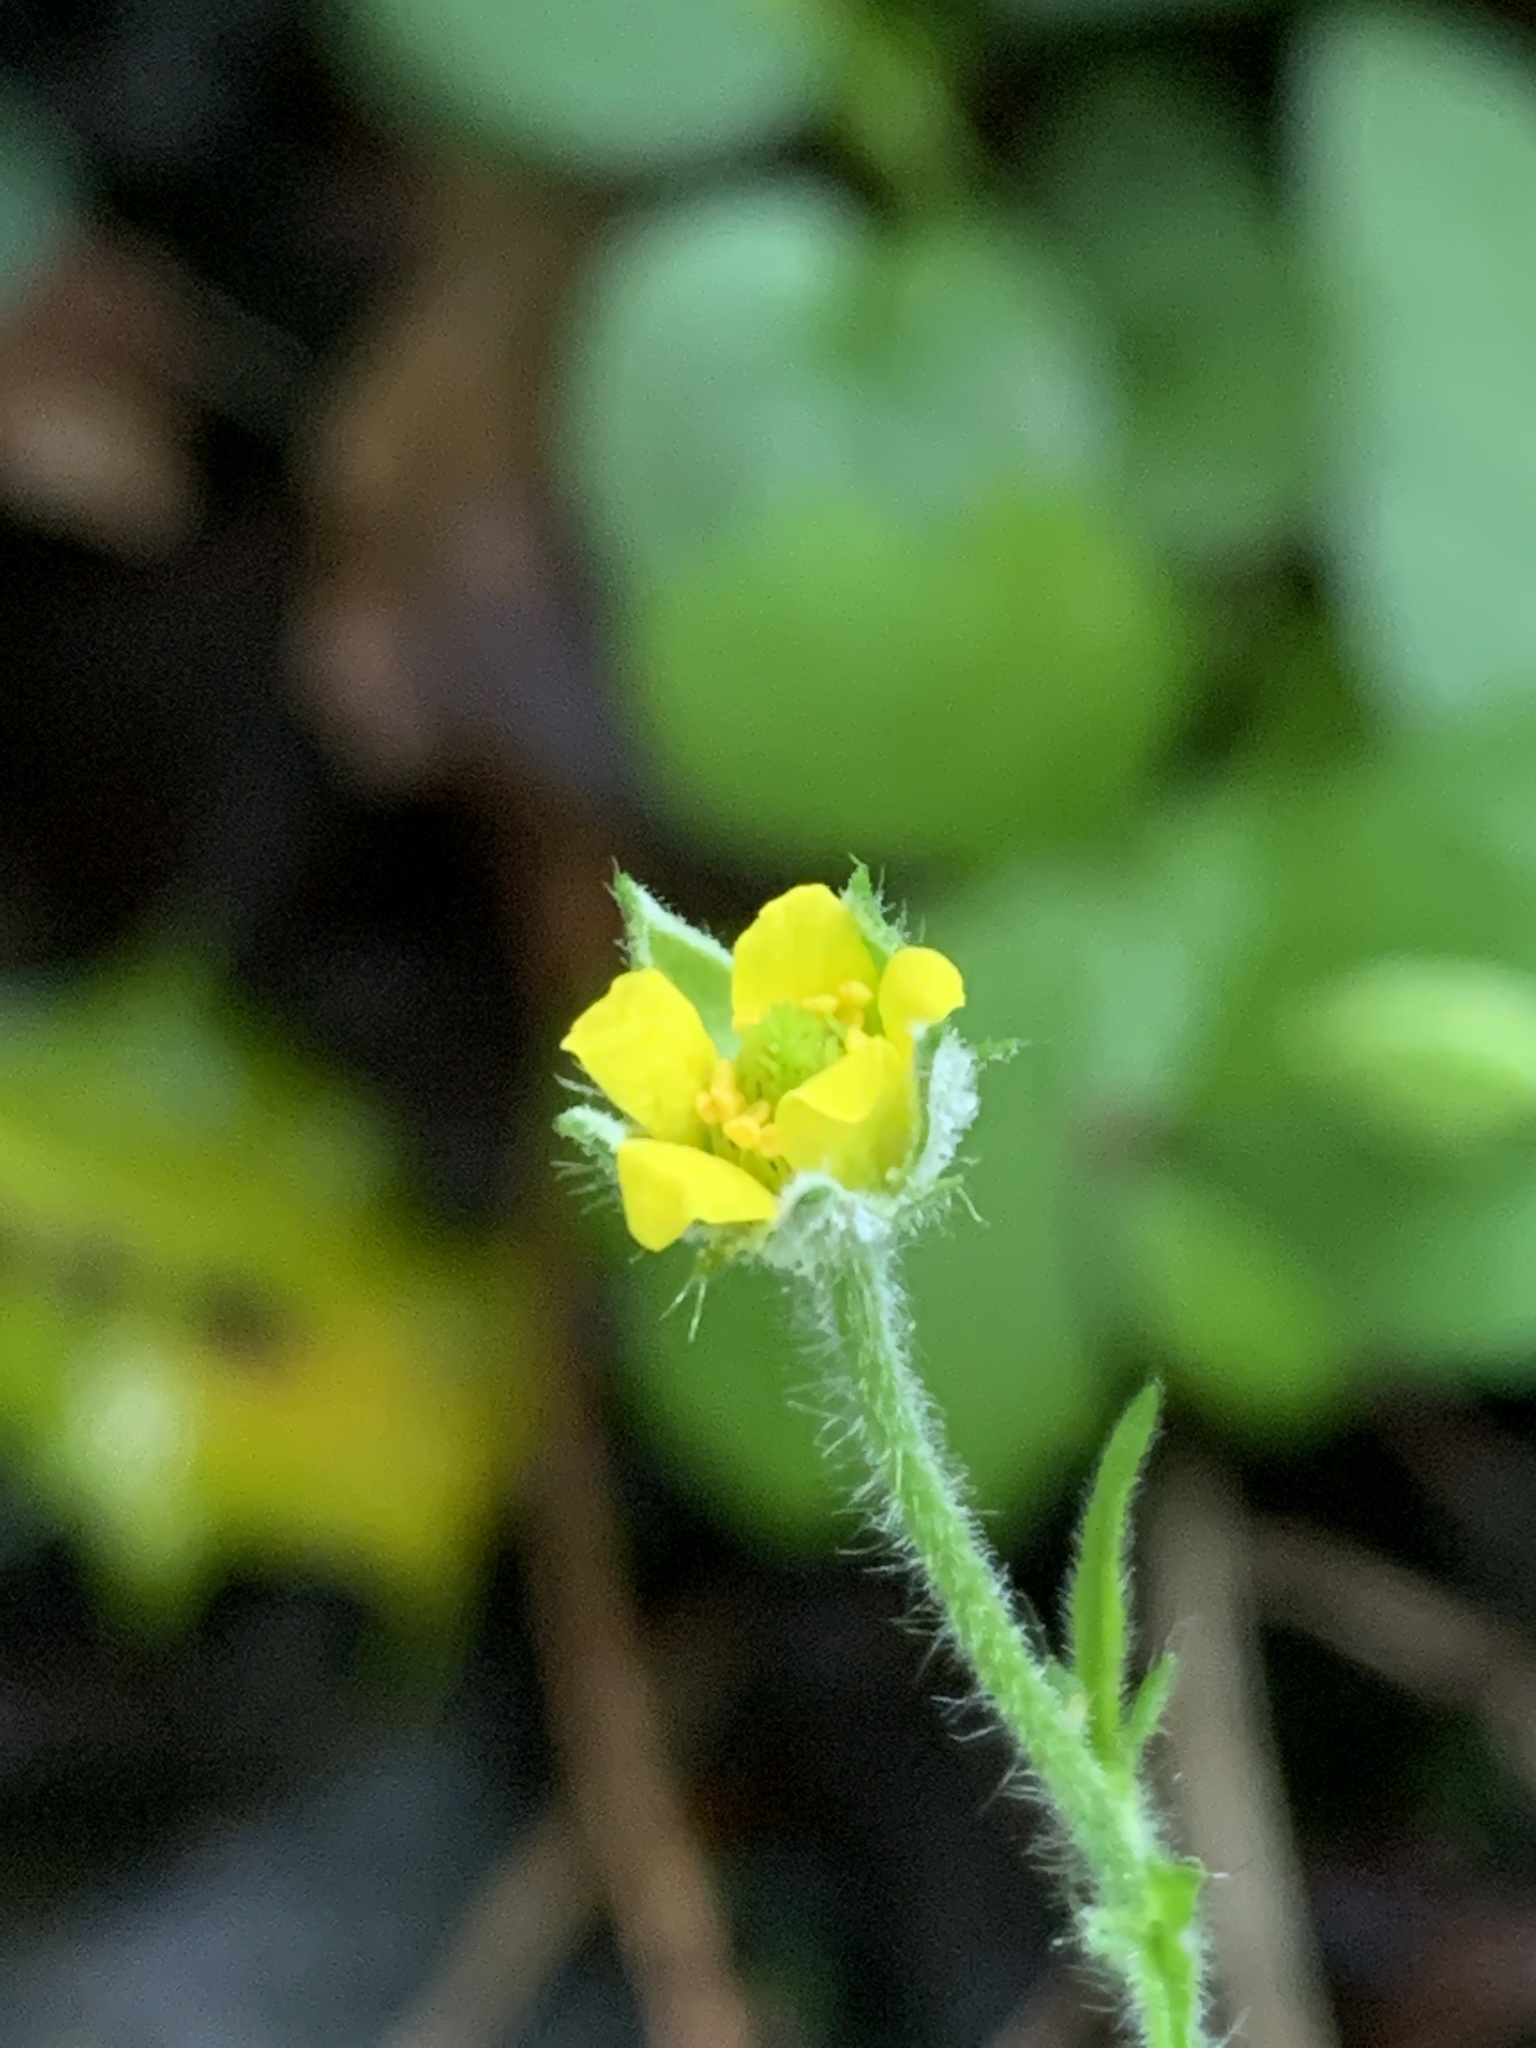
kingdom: Plantae
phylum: Tracheophyta
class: Magnoliopsida
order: Rosales
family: Rosaceae
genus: Geum
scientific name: Geum urbanum
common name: Wood avens
